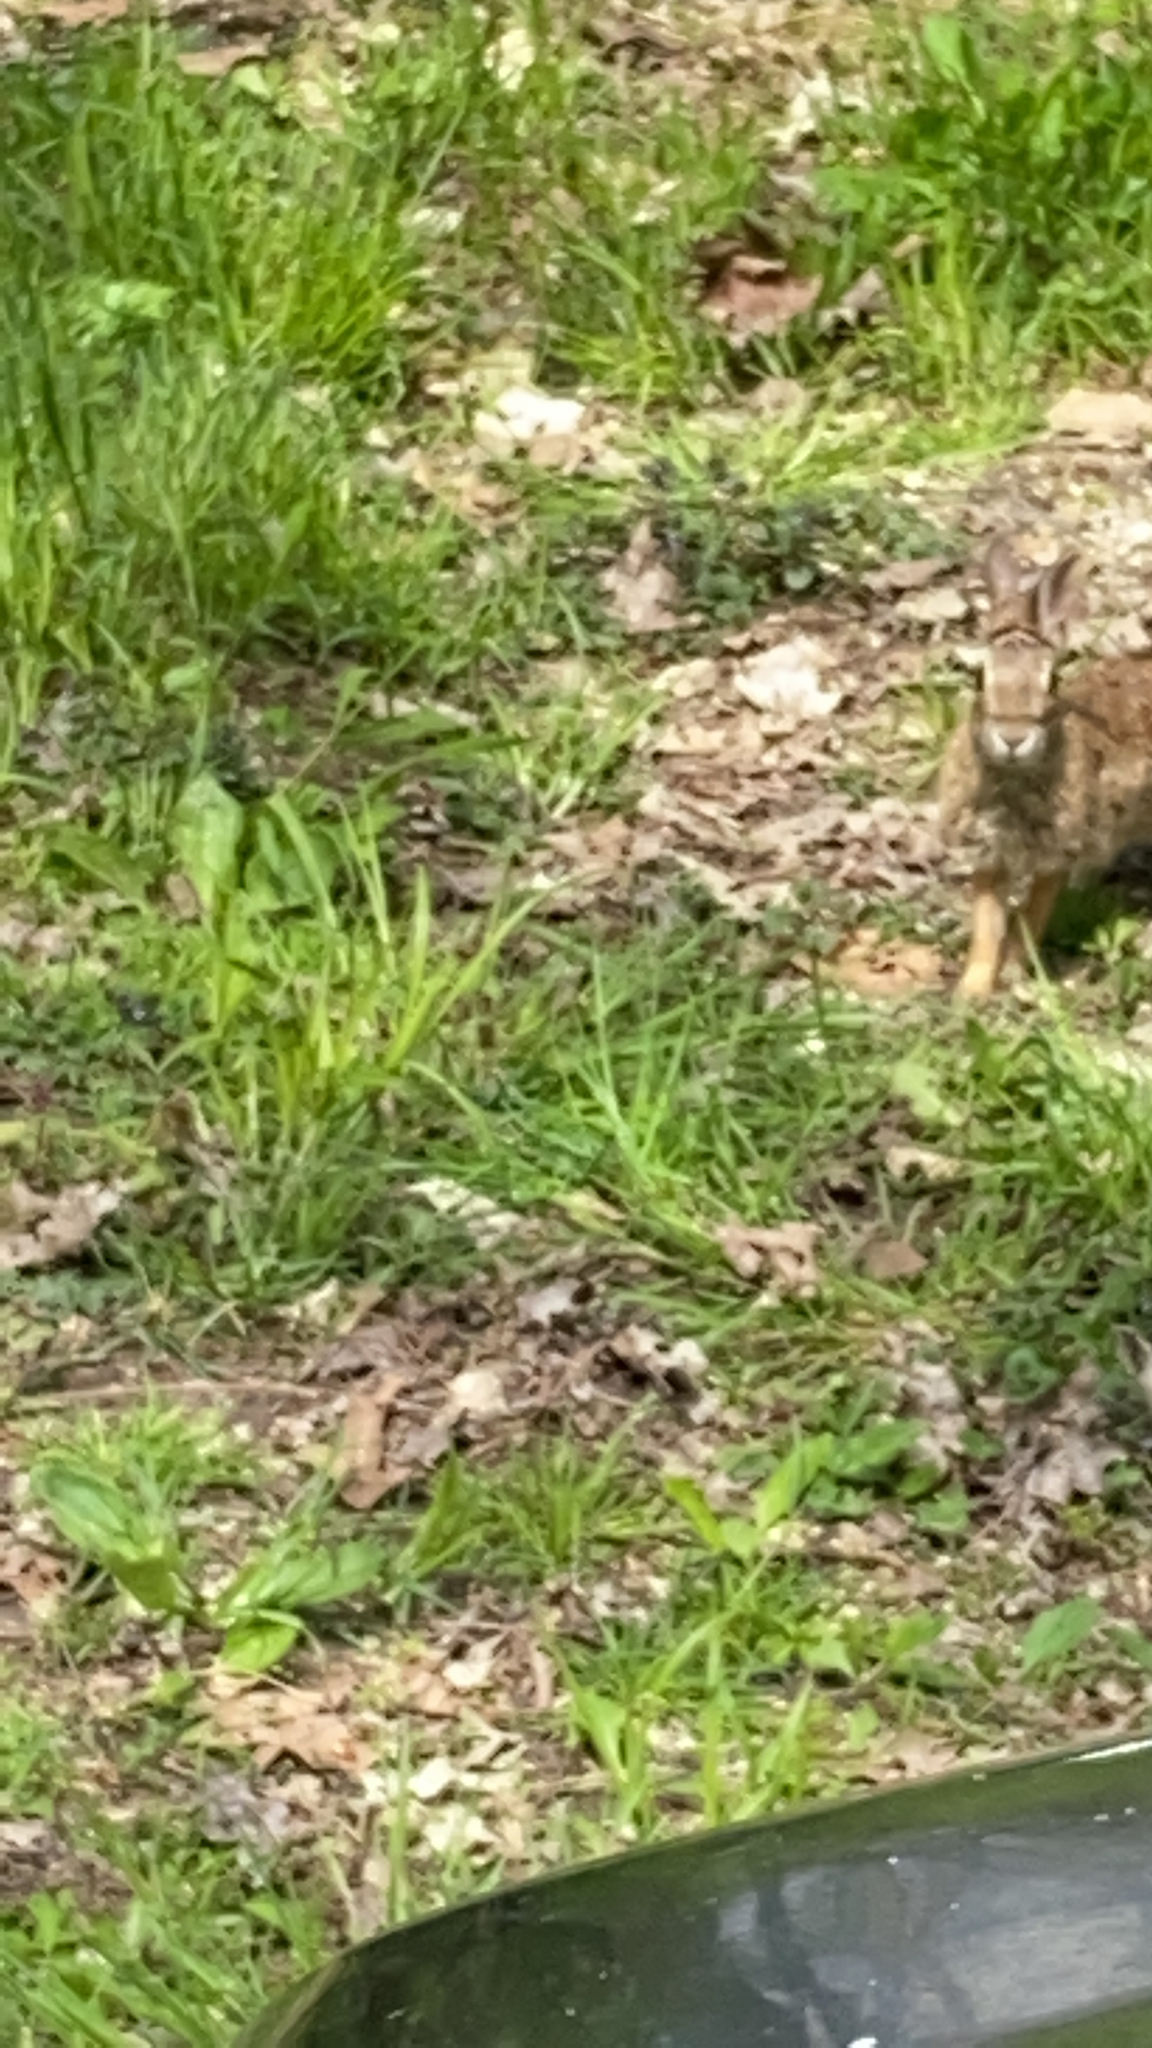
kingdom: Animalia
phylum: Chordata
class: Mammalia
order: Lagomorpha
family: Leporidae
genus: Sylvilagus
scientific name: Sylvilagus floridanus
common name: Eastern cottontail
